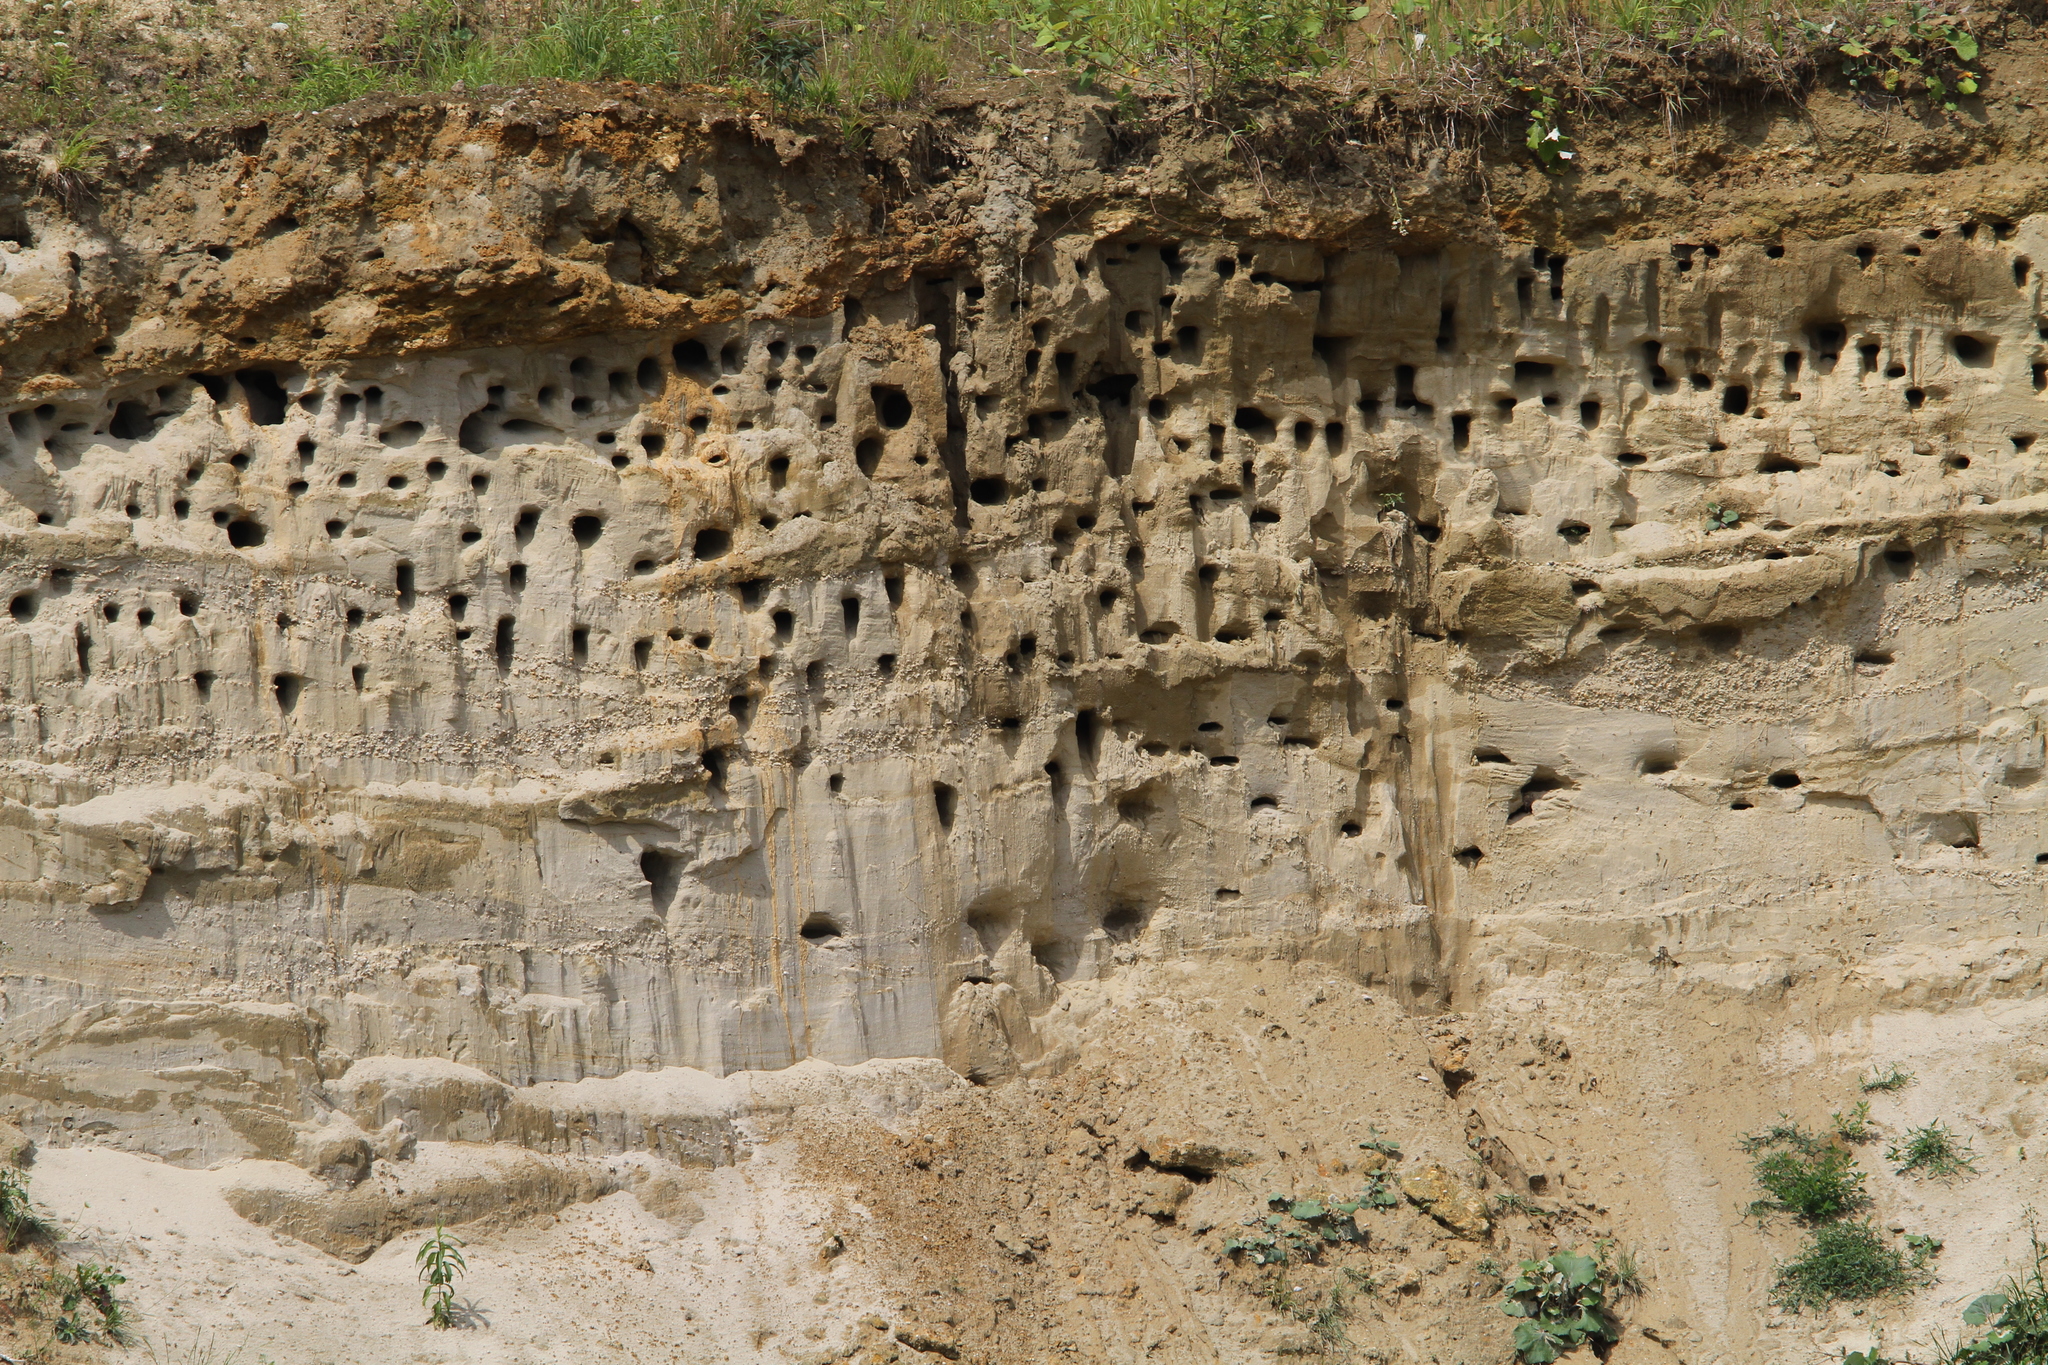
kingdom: Animalia
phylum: Chordata
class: Aves
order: Passeriformes
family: Hirundinidae
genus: Riparia
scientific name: Riparia riparia
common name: Sand martin
